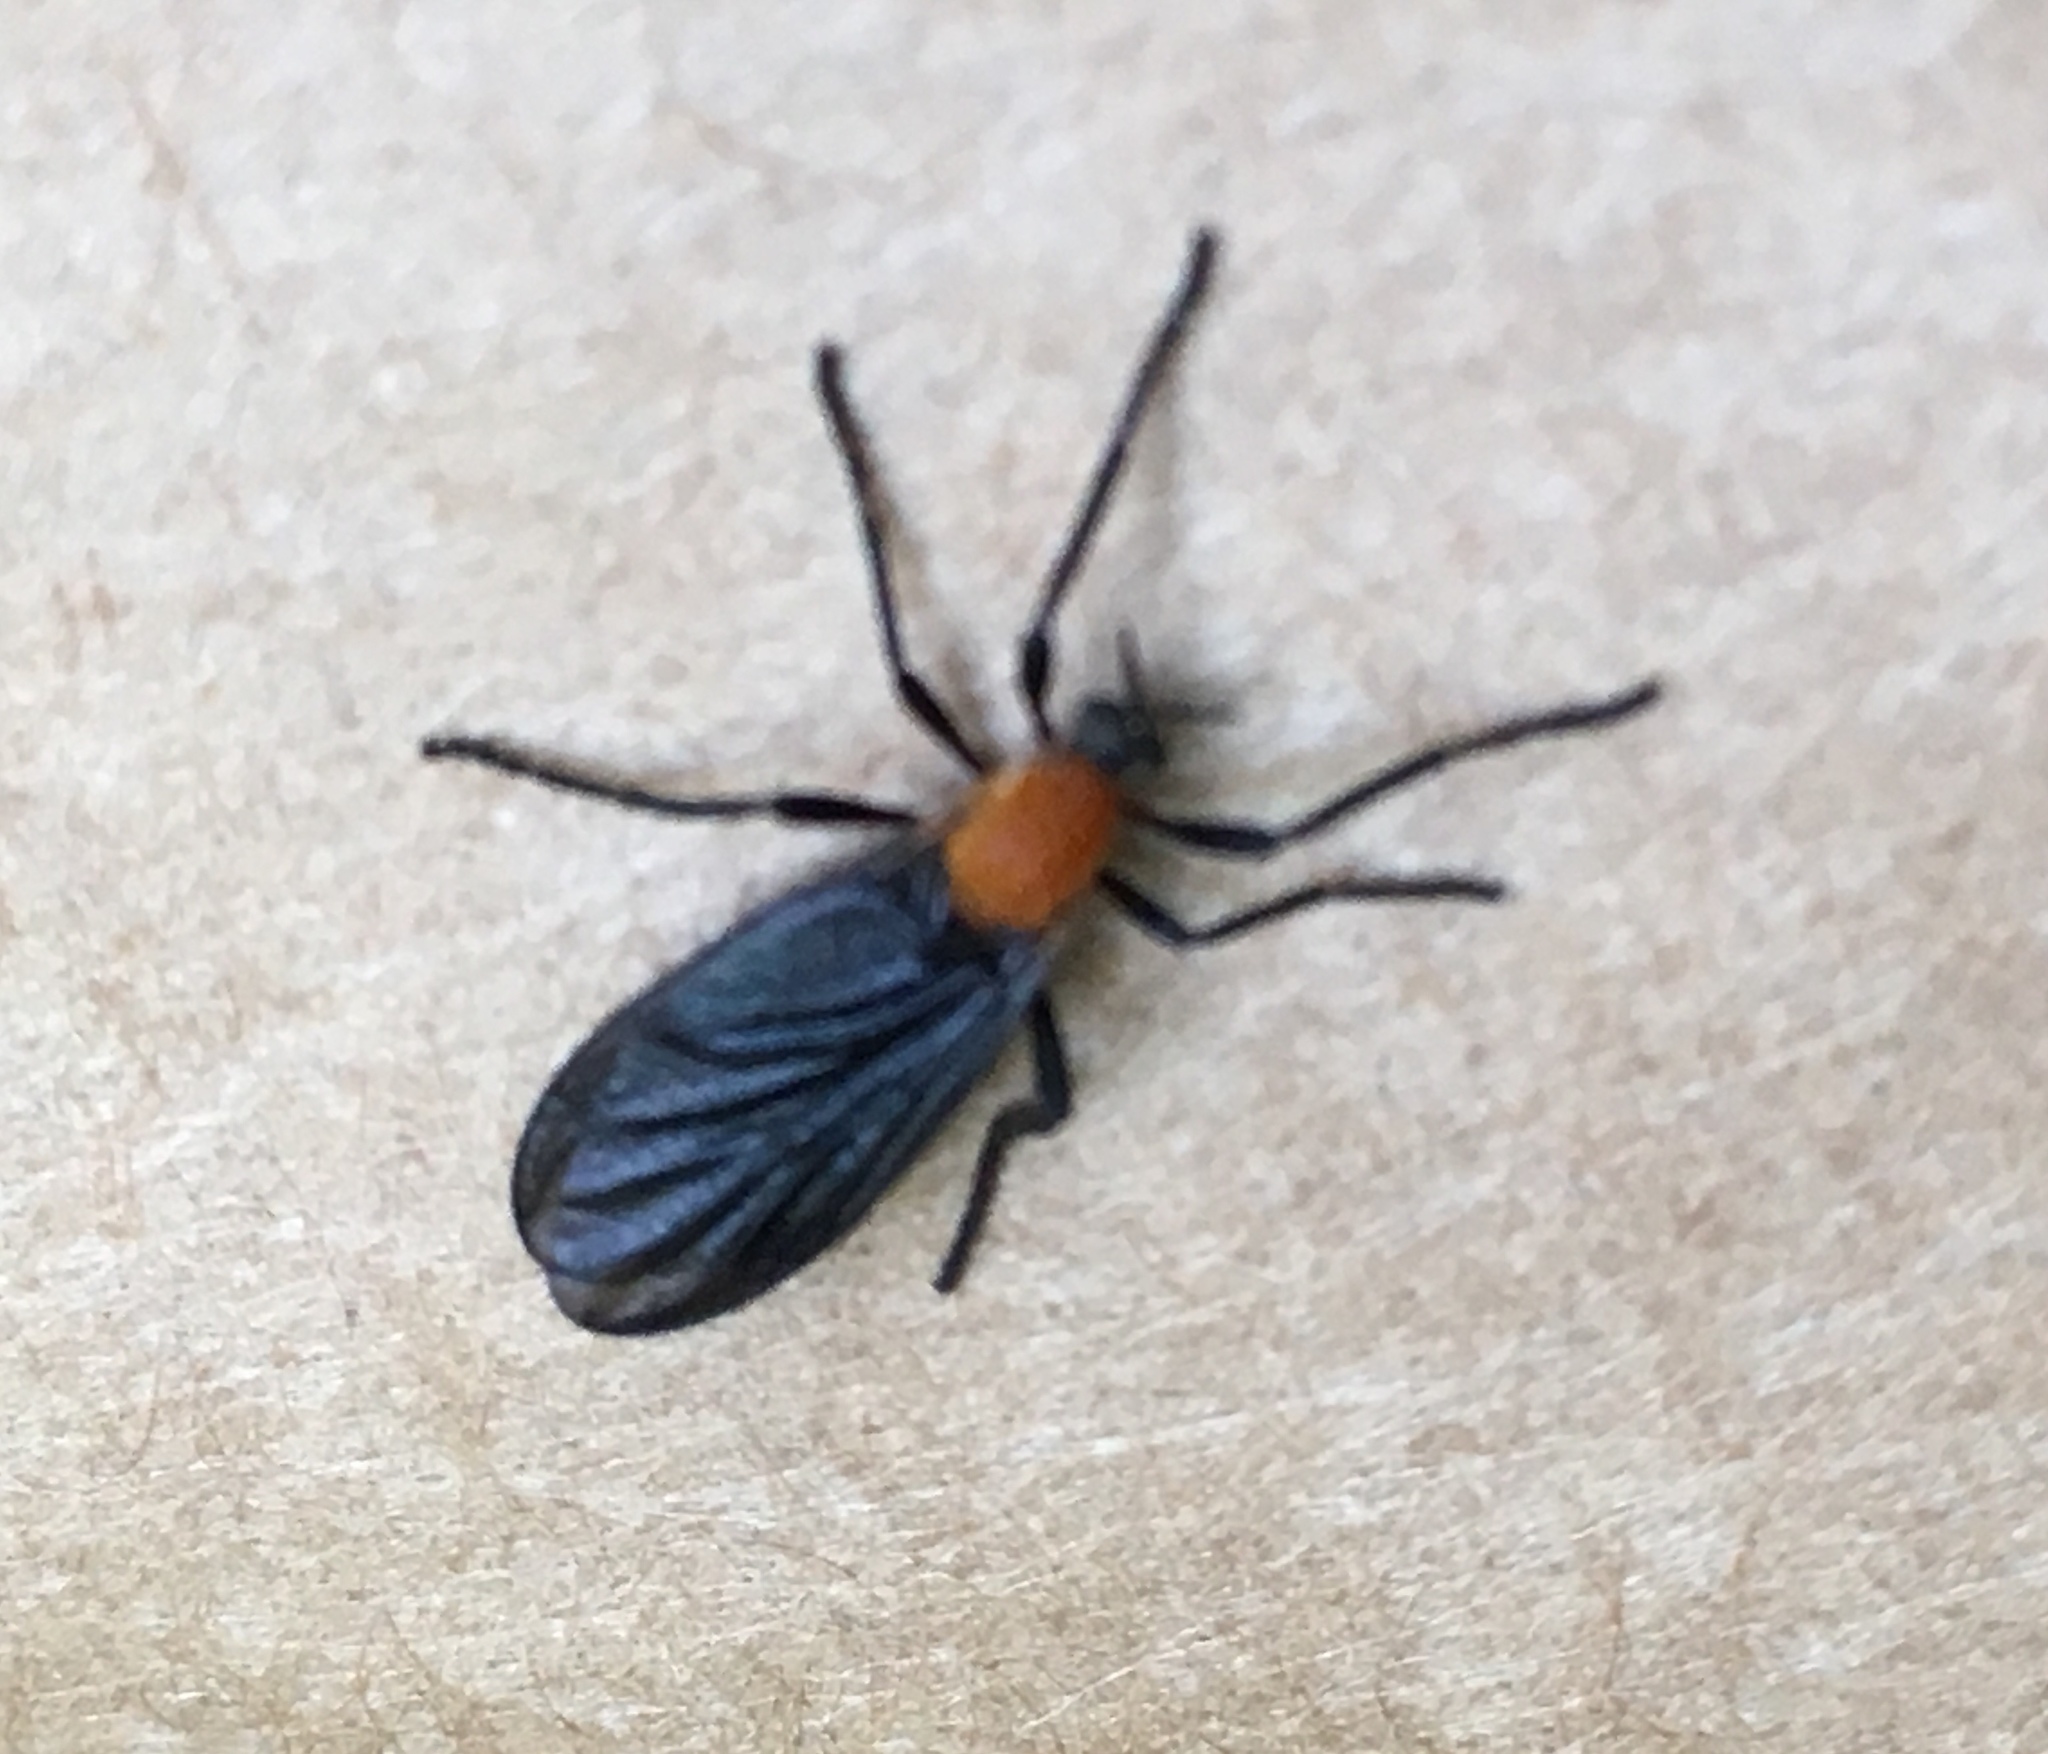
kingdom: Animalia
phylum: Arthropoda
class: Insecta
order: Diptera
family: Bibionidae
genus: Plecia
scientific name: Plecia americana
